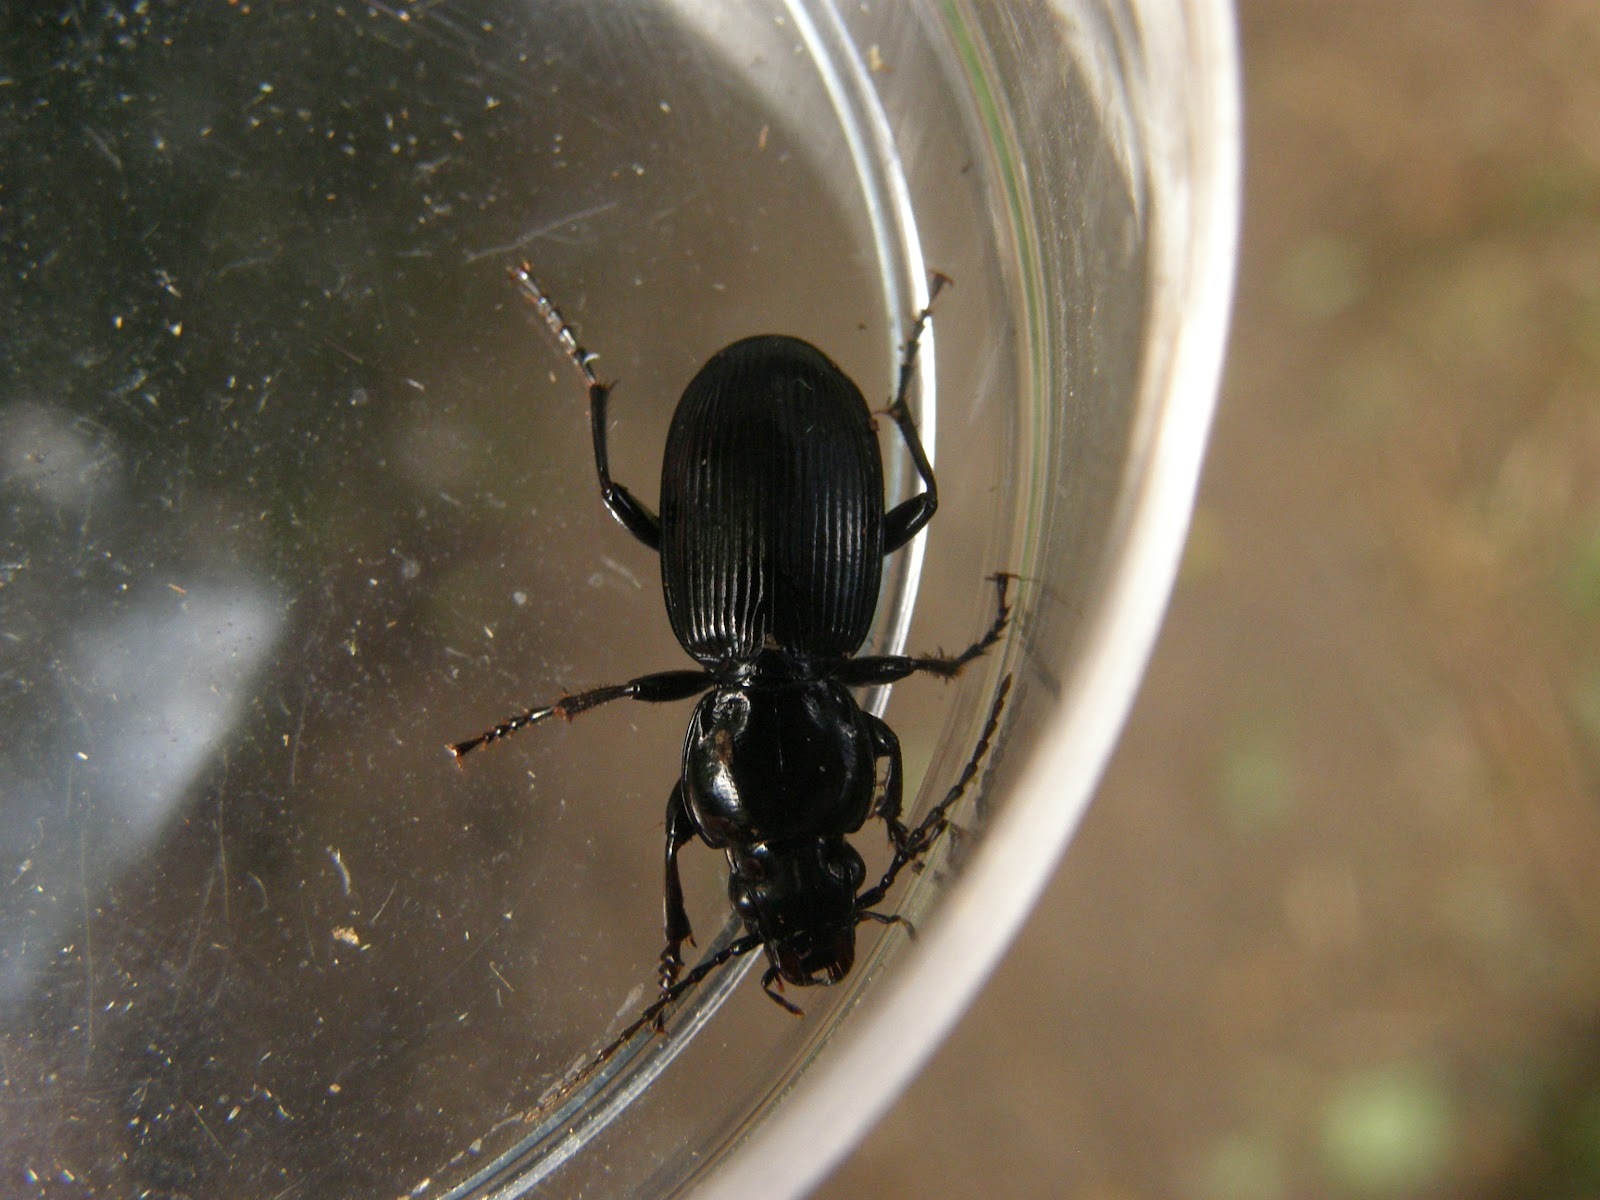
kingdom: Animalia
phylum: Arthropoda
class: Insecta
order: Coleoptera
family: Carabidae
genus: Pterostichus
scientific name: Pterostichus madidus
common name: Black clock
